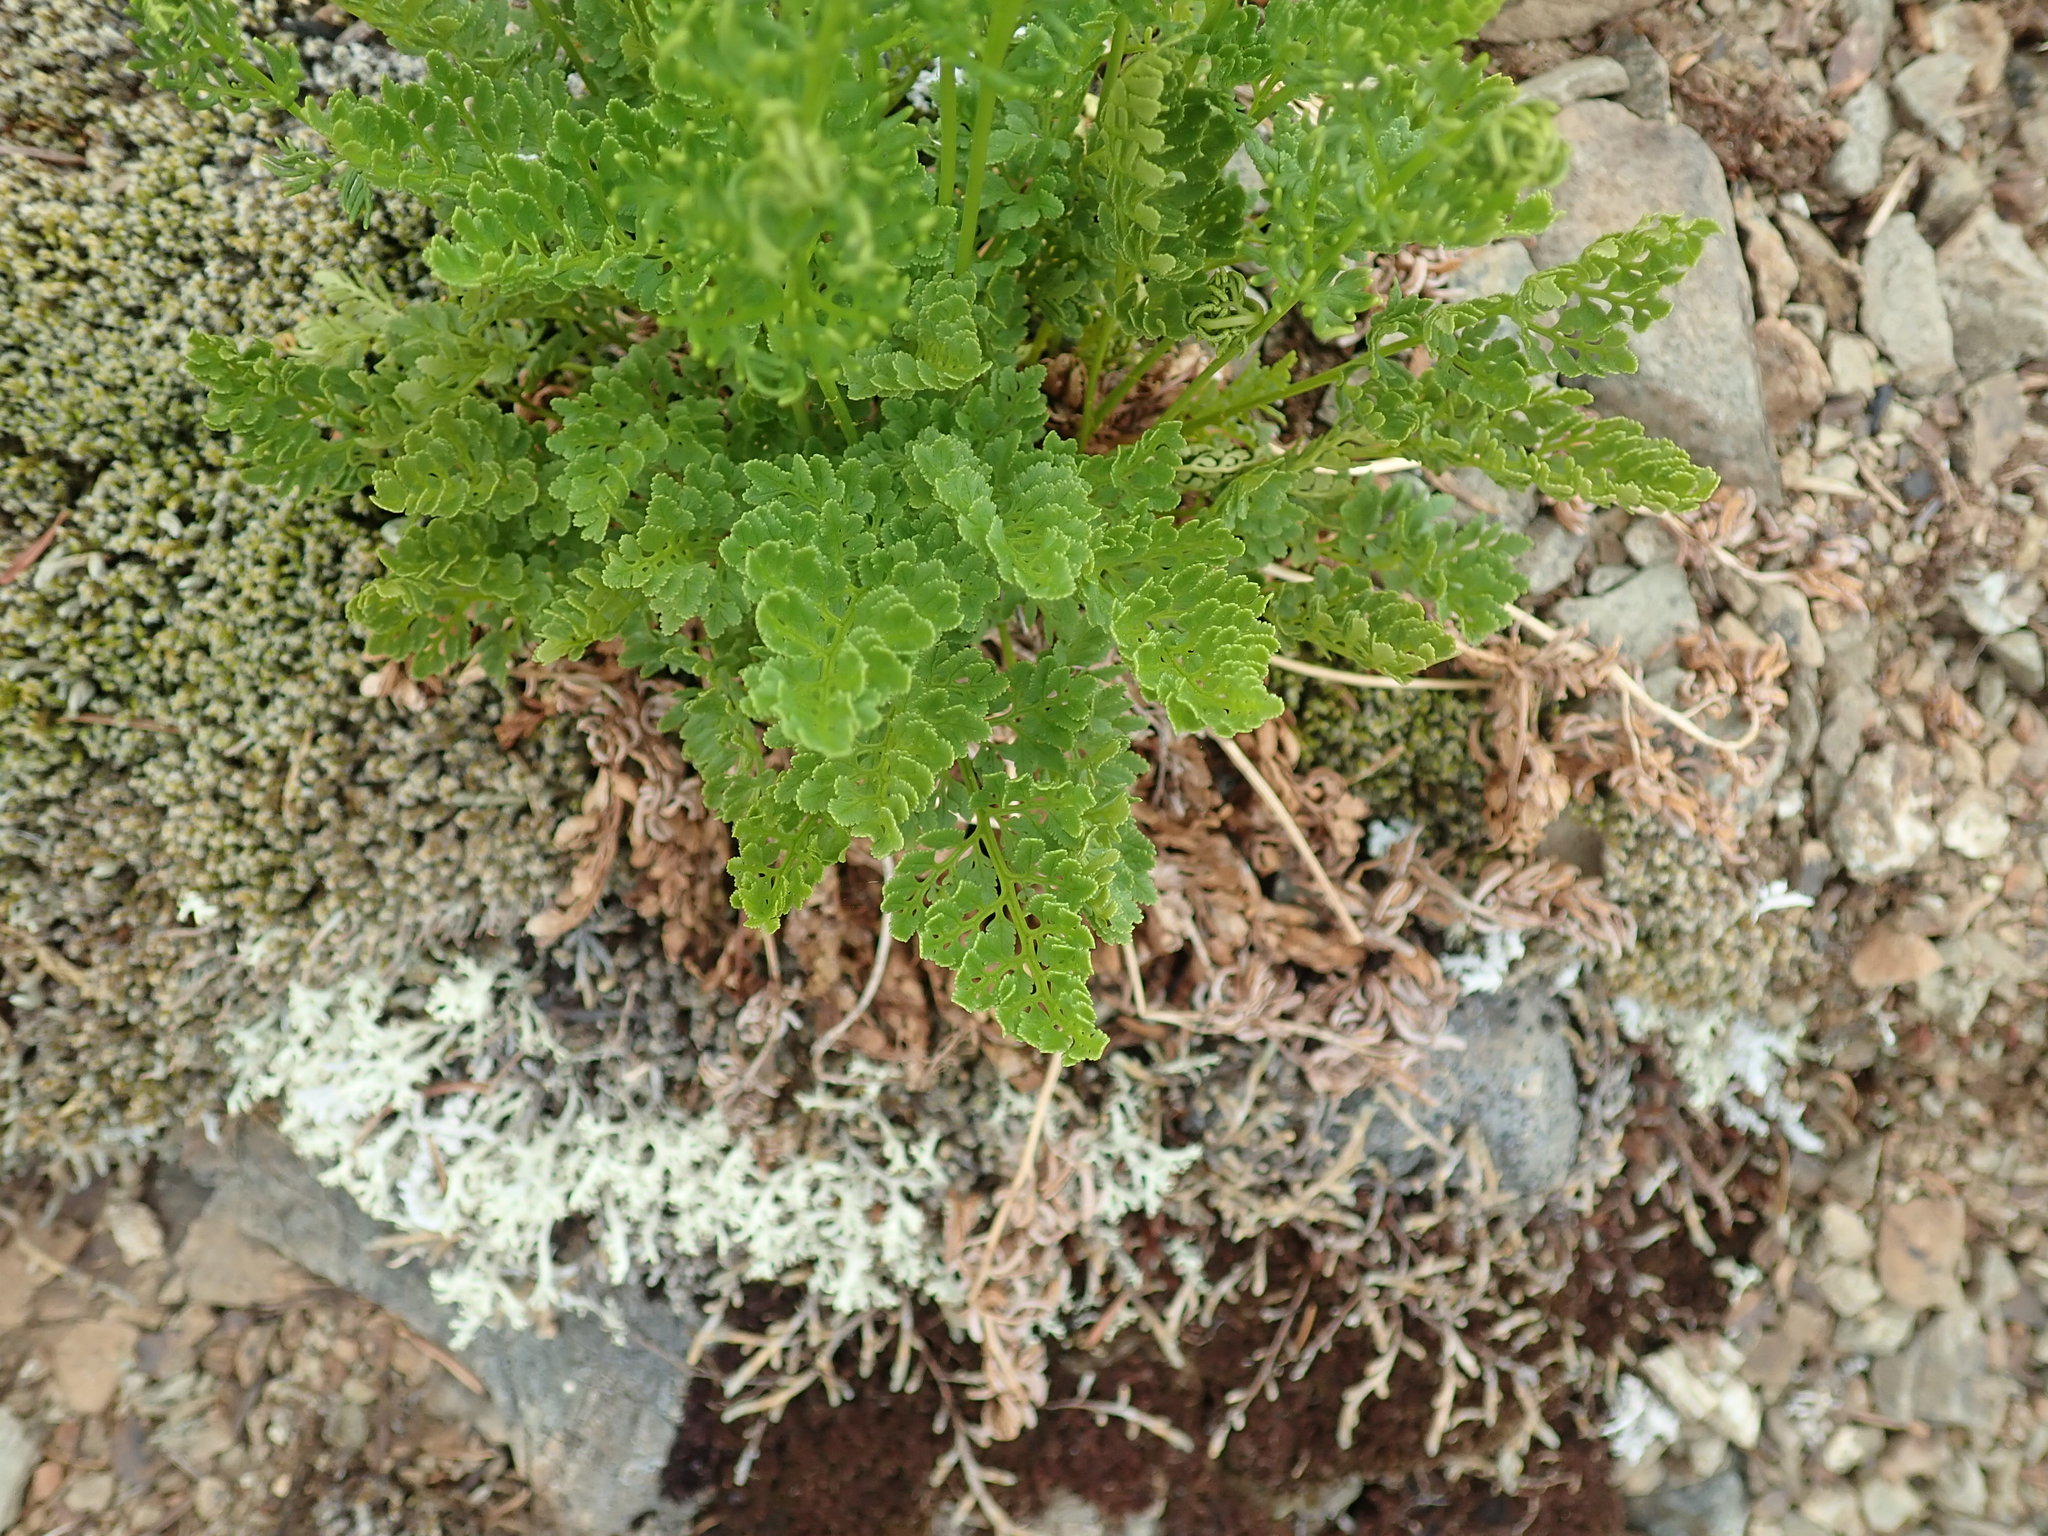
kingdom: Plantae
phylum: Tracheophyta
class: Polypodiopsida
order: Polypodiales
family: Pteridaceae
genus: Cryptogramma
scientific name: Cryptogramma acrostichoides
